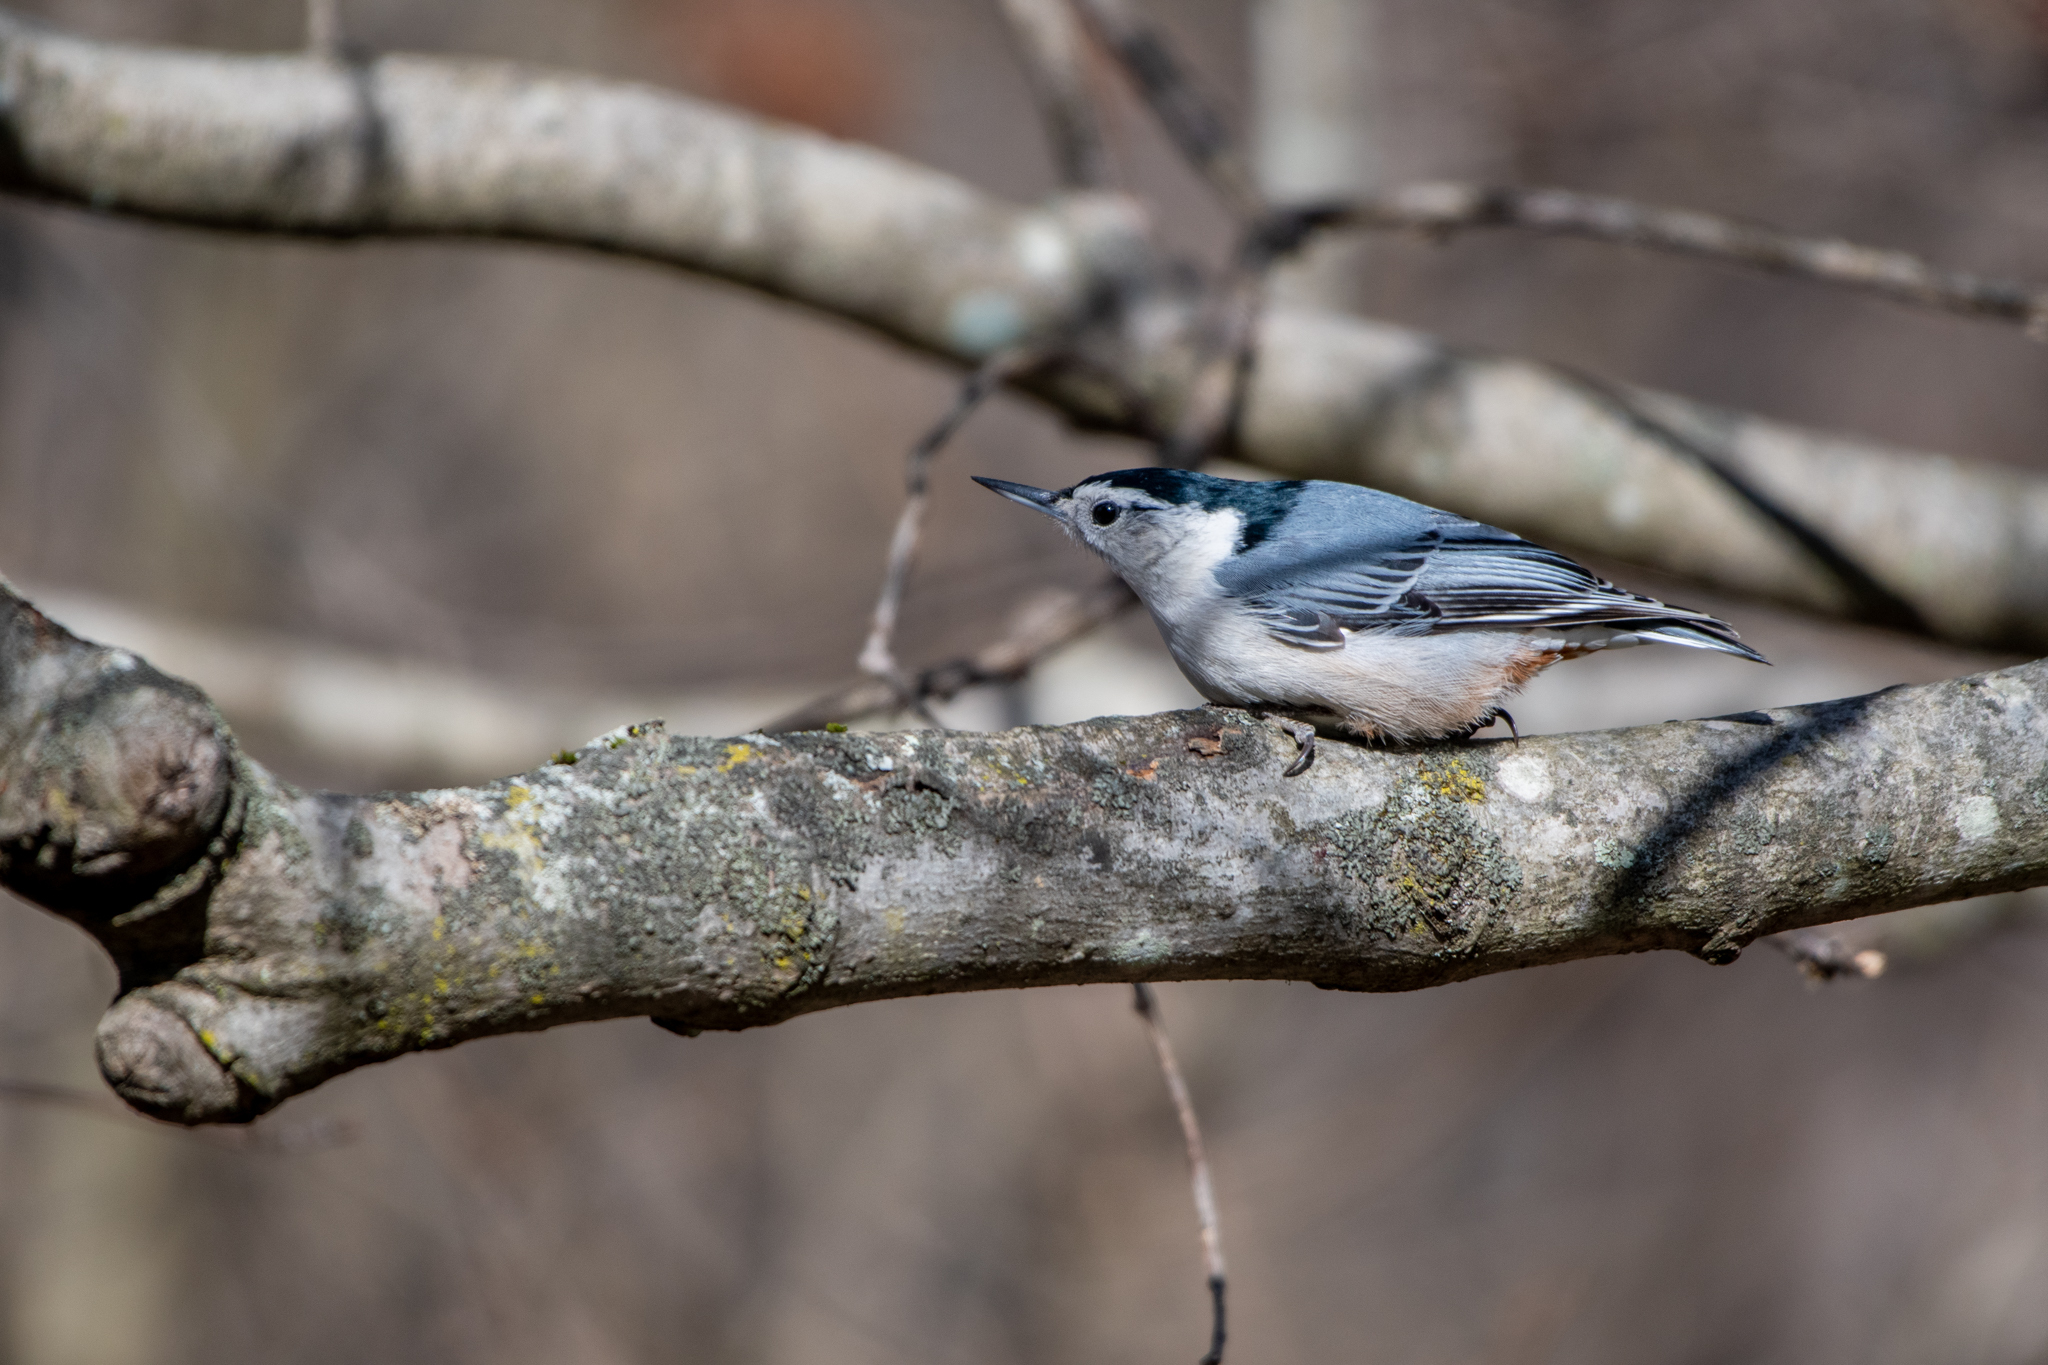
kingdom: Animalia
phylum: Chordata
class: Aves
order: Passeriformes
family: Sittidae
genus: Sitta
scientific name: Sitta carolinensis
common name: White-breasted nuthatch
